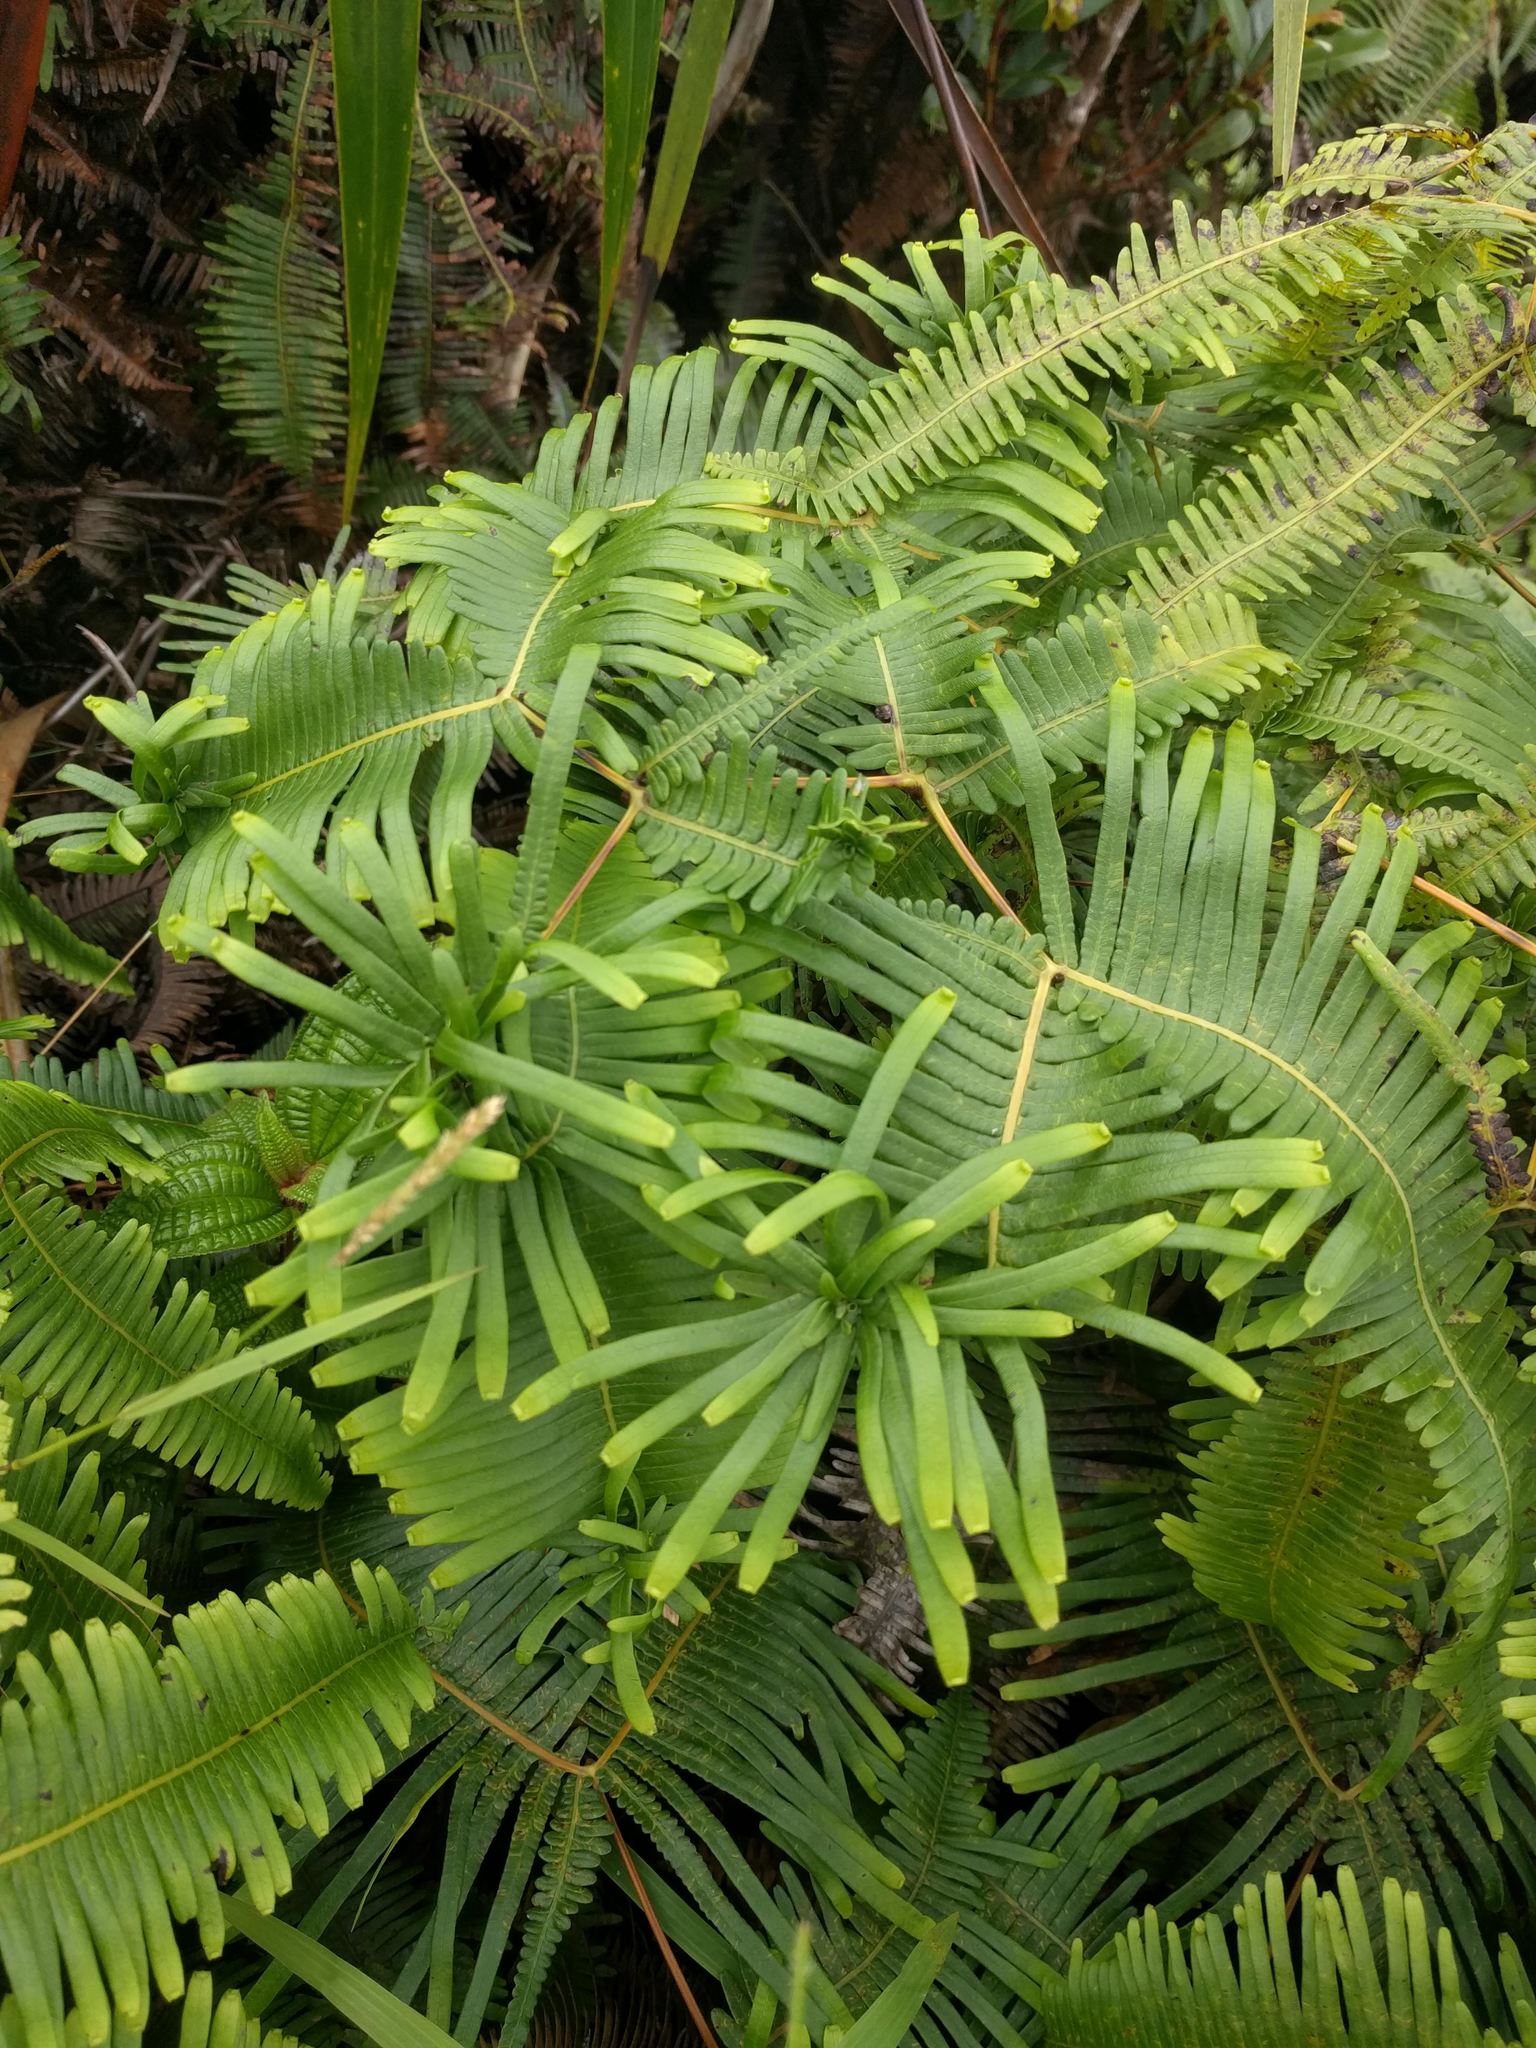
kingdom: Animalia
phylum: Arthropoda
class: Insecta
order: Hemiptera
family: Pseudococcidae
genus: Nesopedronia
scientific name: Nesopedronia hawaiiensis
